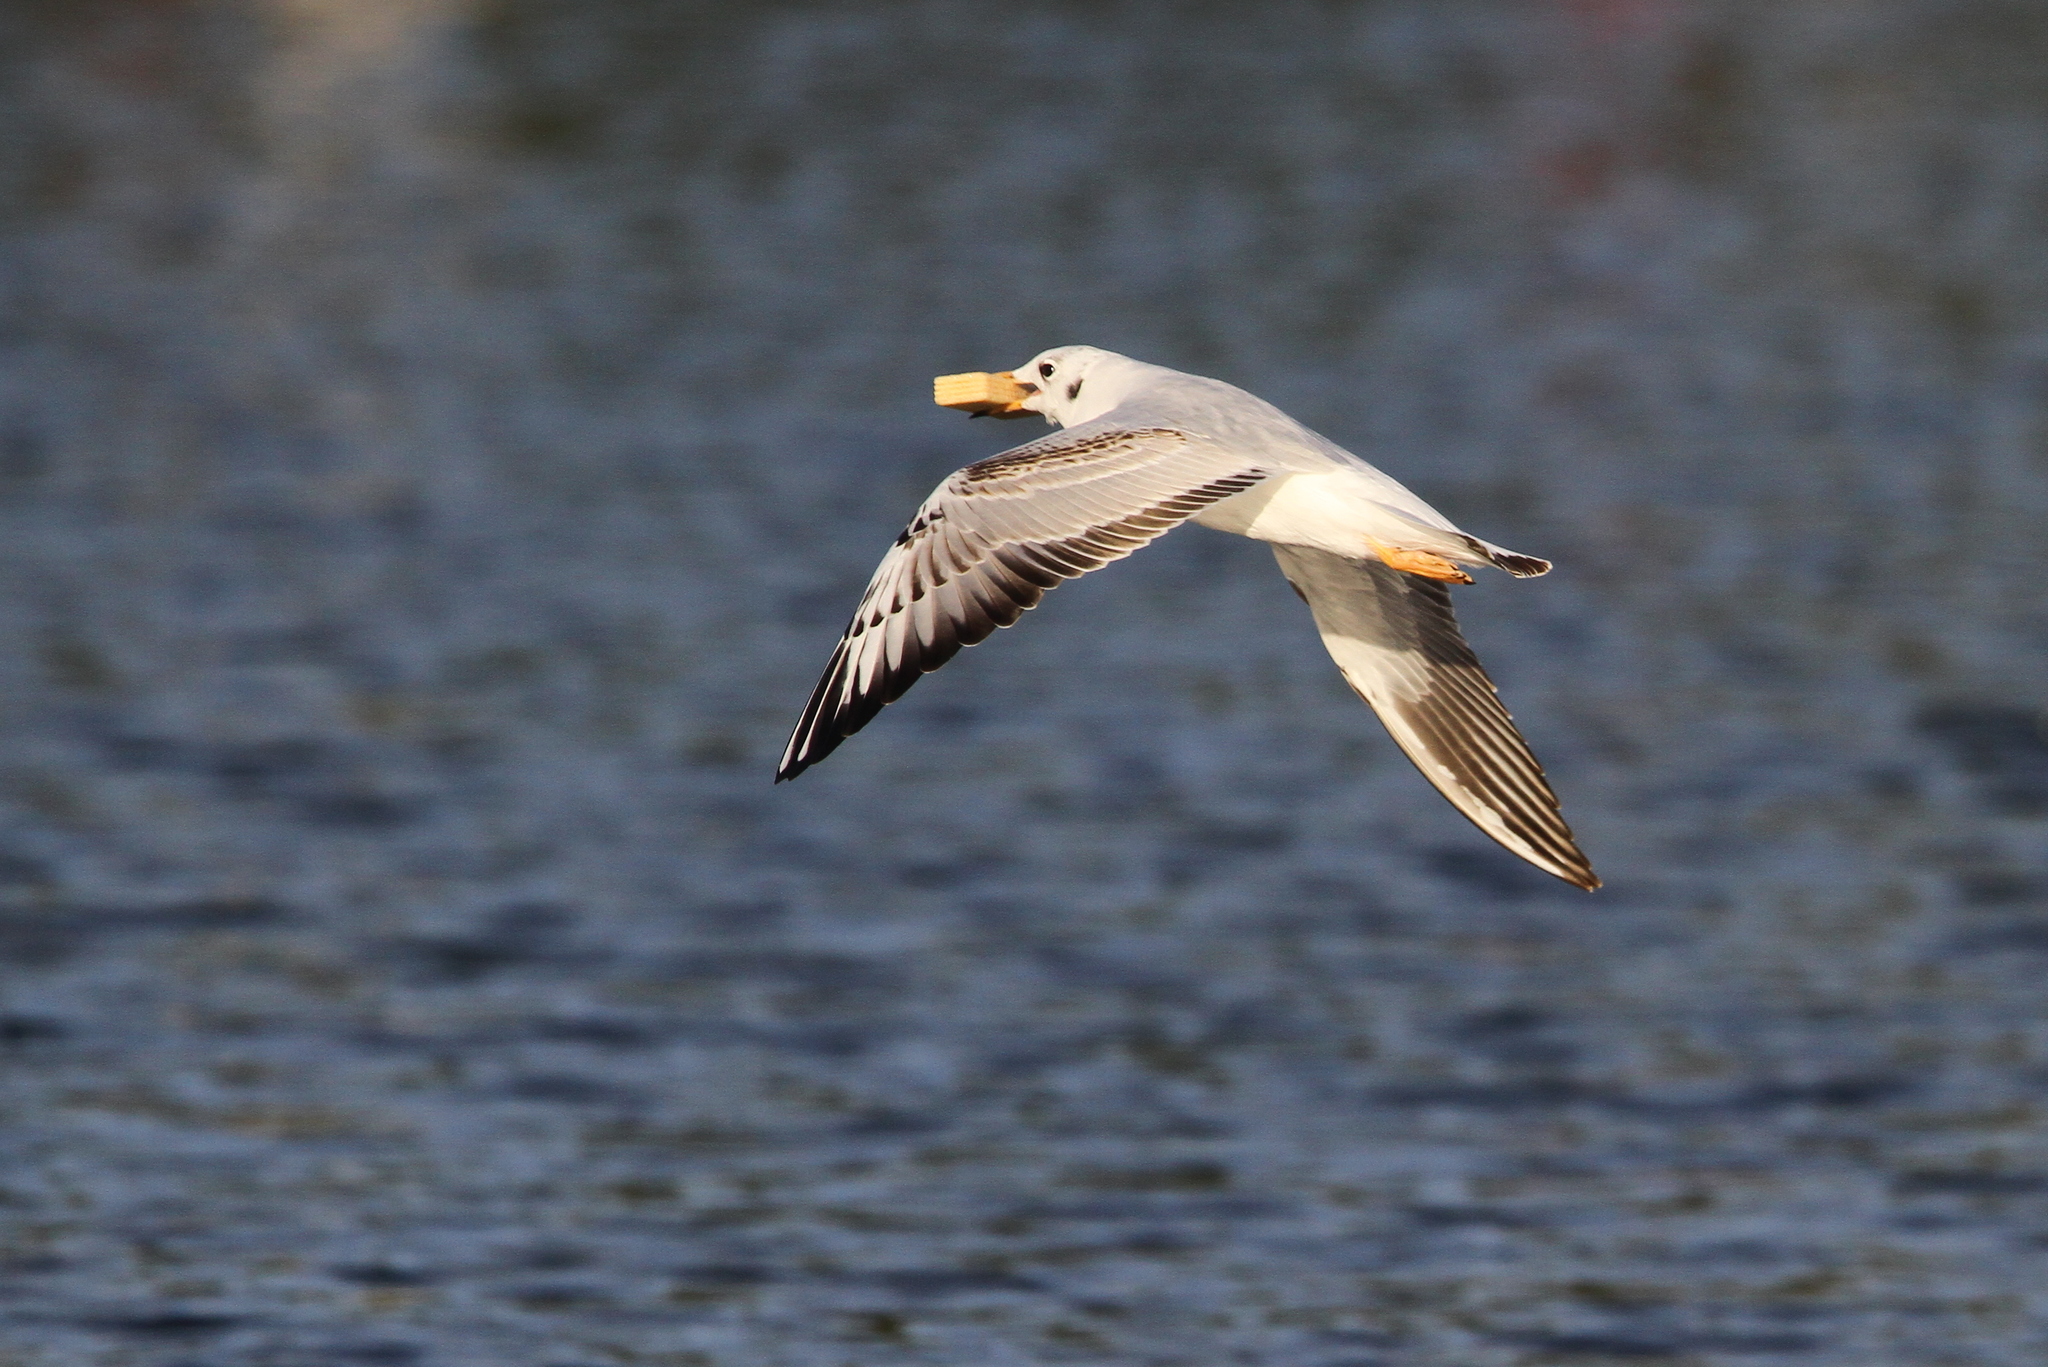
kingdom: Animalia
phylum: Chordata
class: Aves
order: Charadriiformes
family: Laridae
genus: Chroicocephalus
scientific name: Chroicocephalus ridibundus
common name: Black-headed gull
